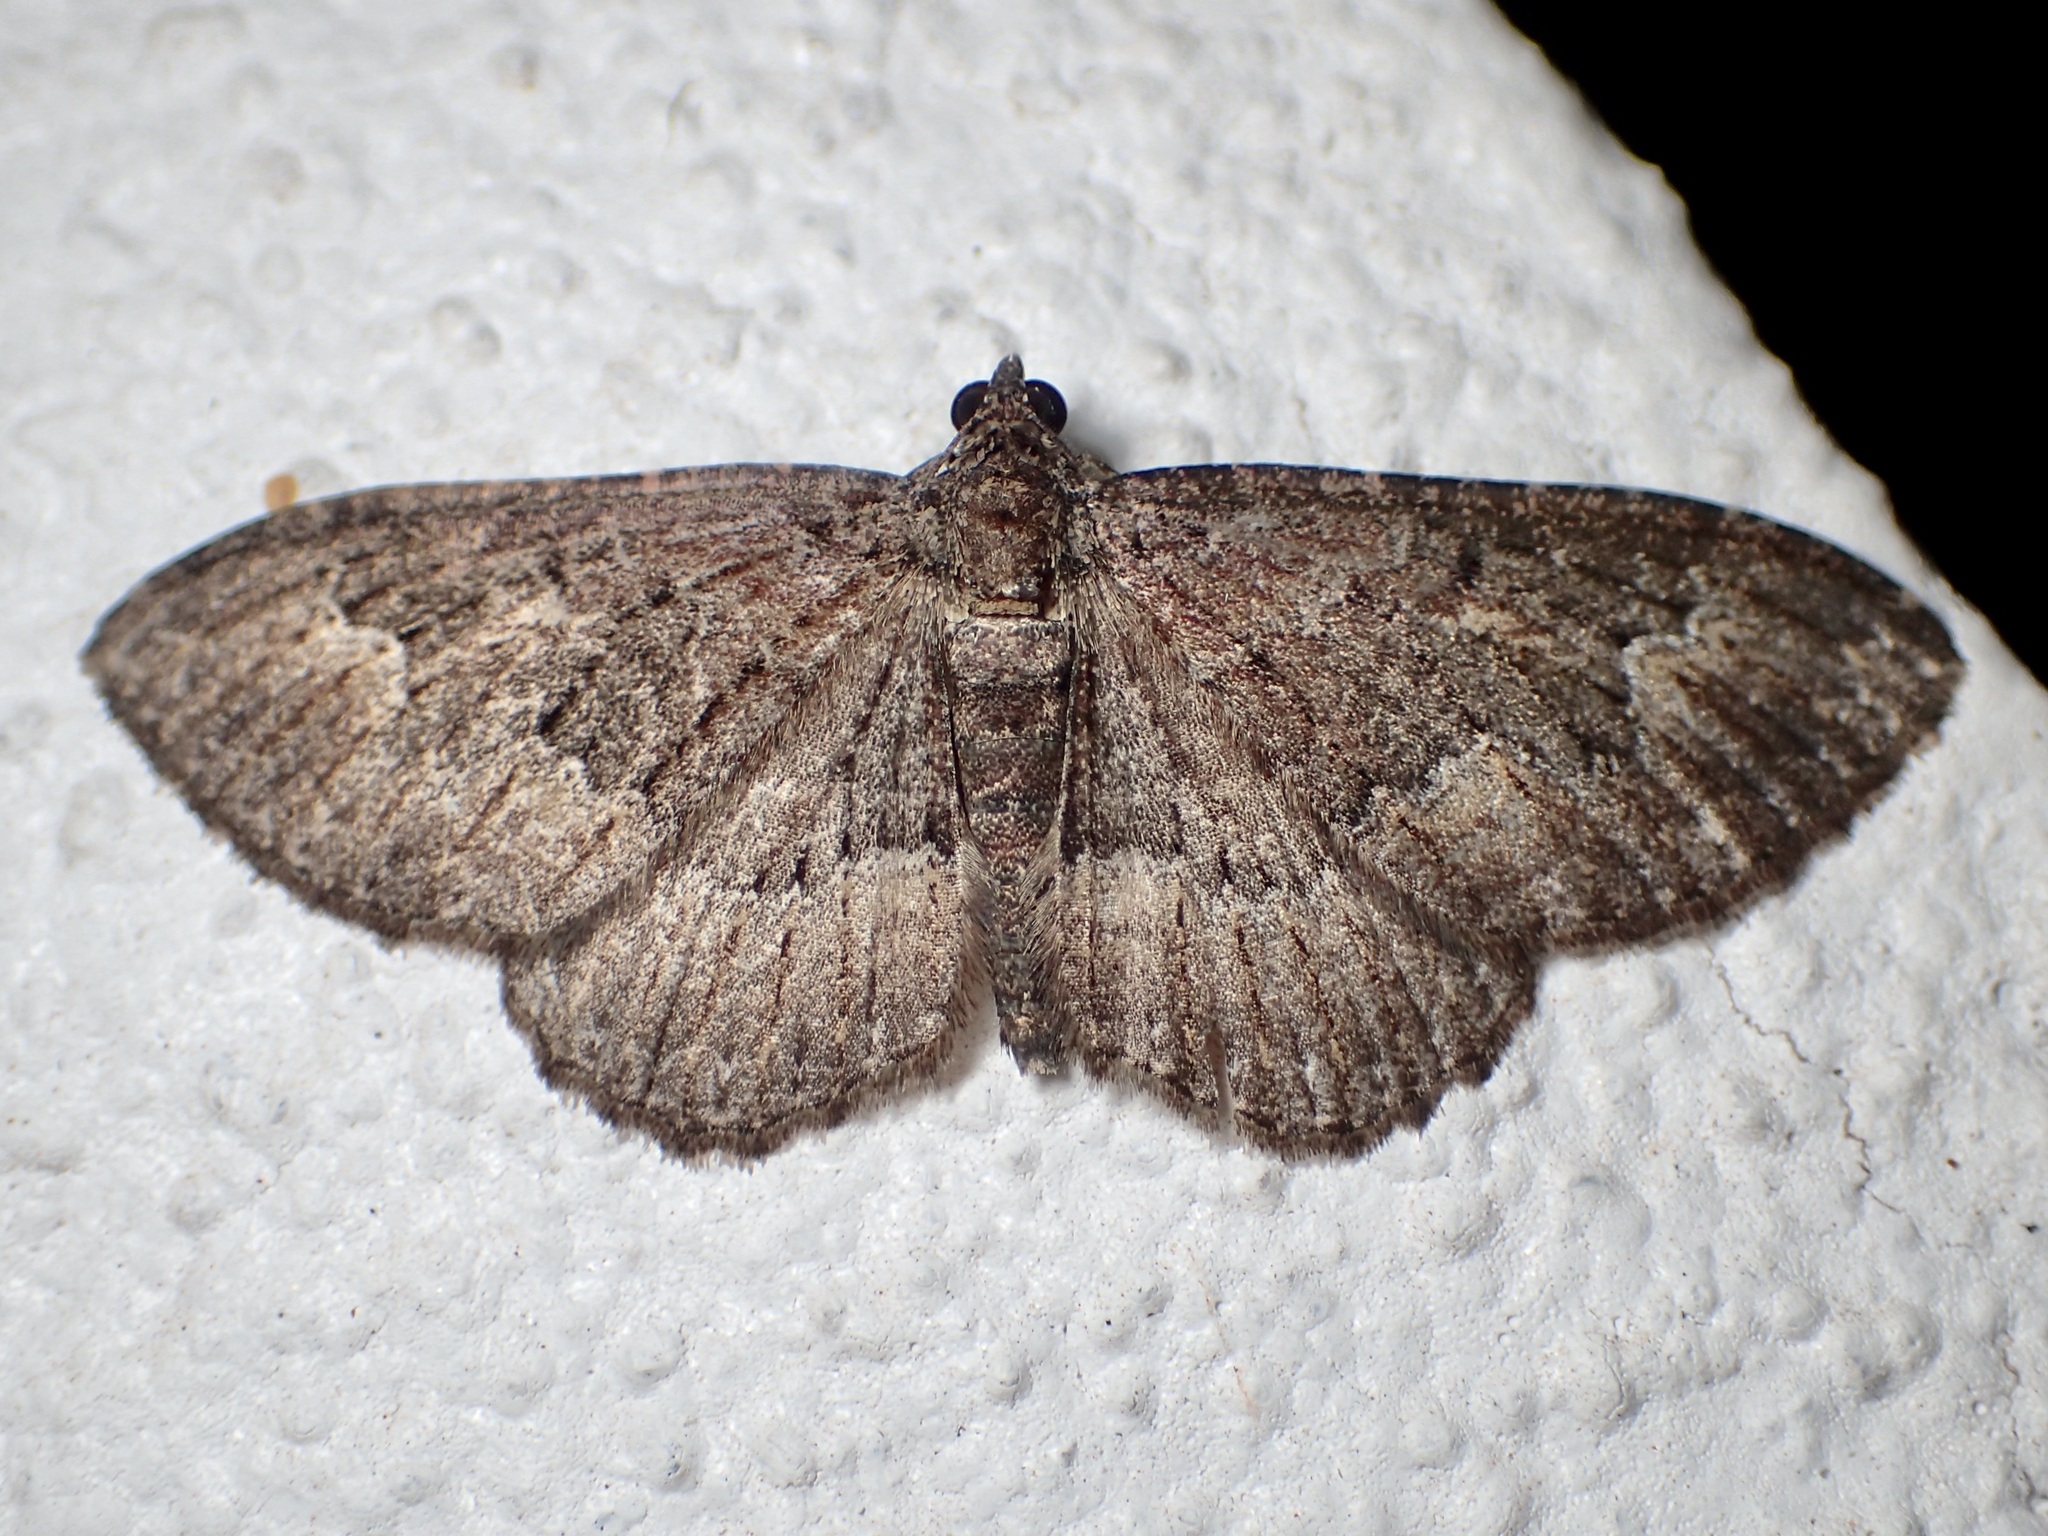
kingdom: Animalia
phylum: Arthropoda
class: Insecta
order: Lepidoptera
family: Geometridae
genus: Disclisioprocta
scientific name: Disclisioprocta stellata
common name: Somber carpet
